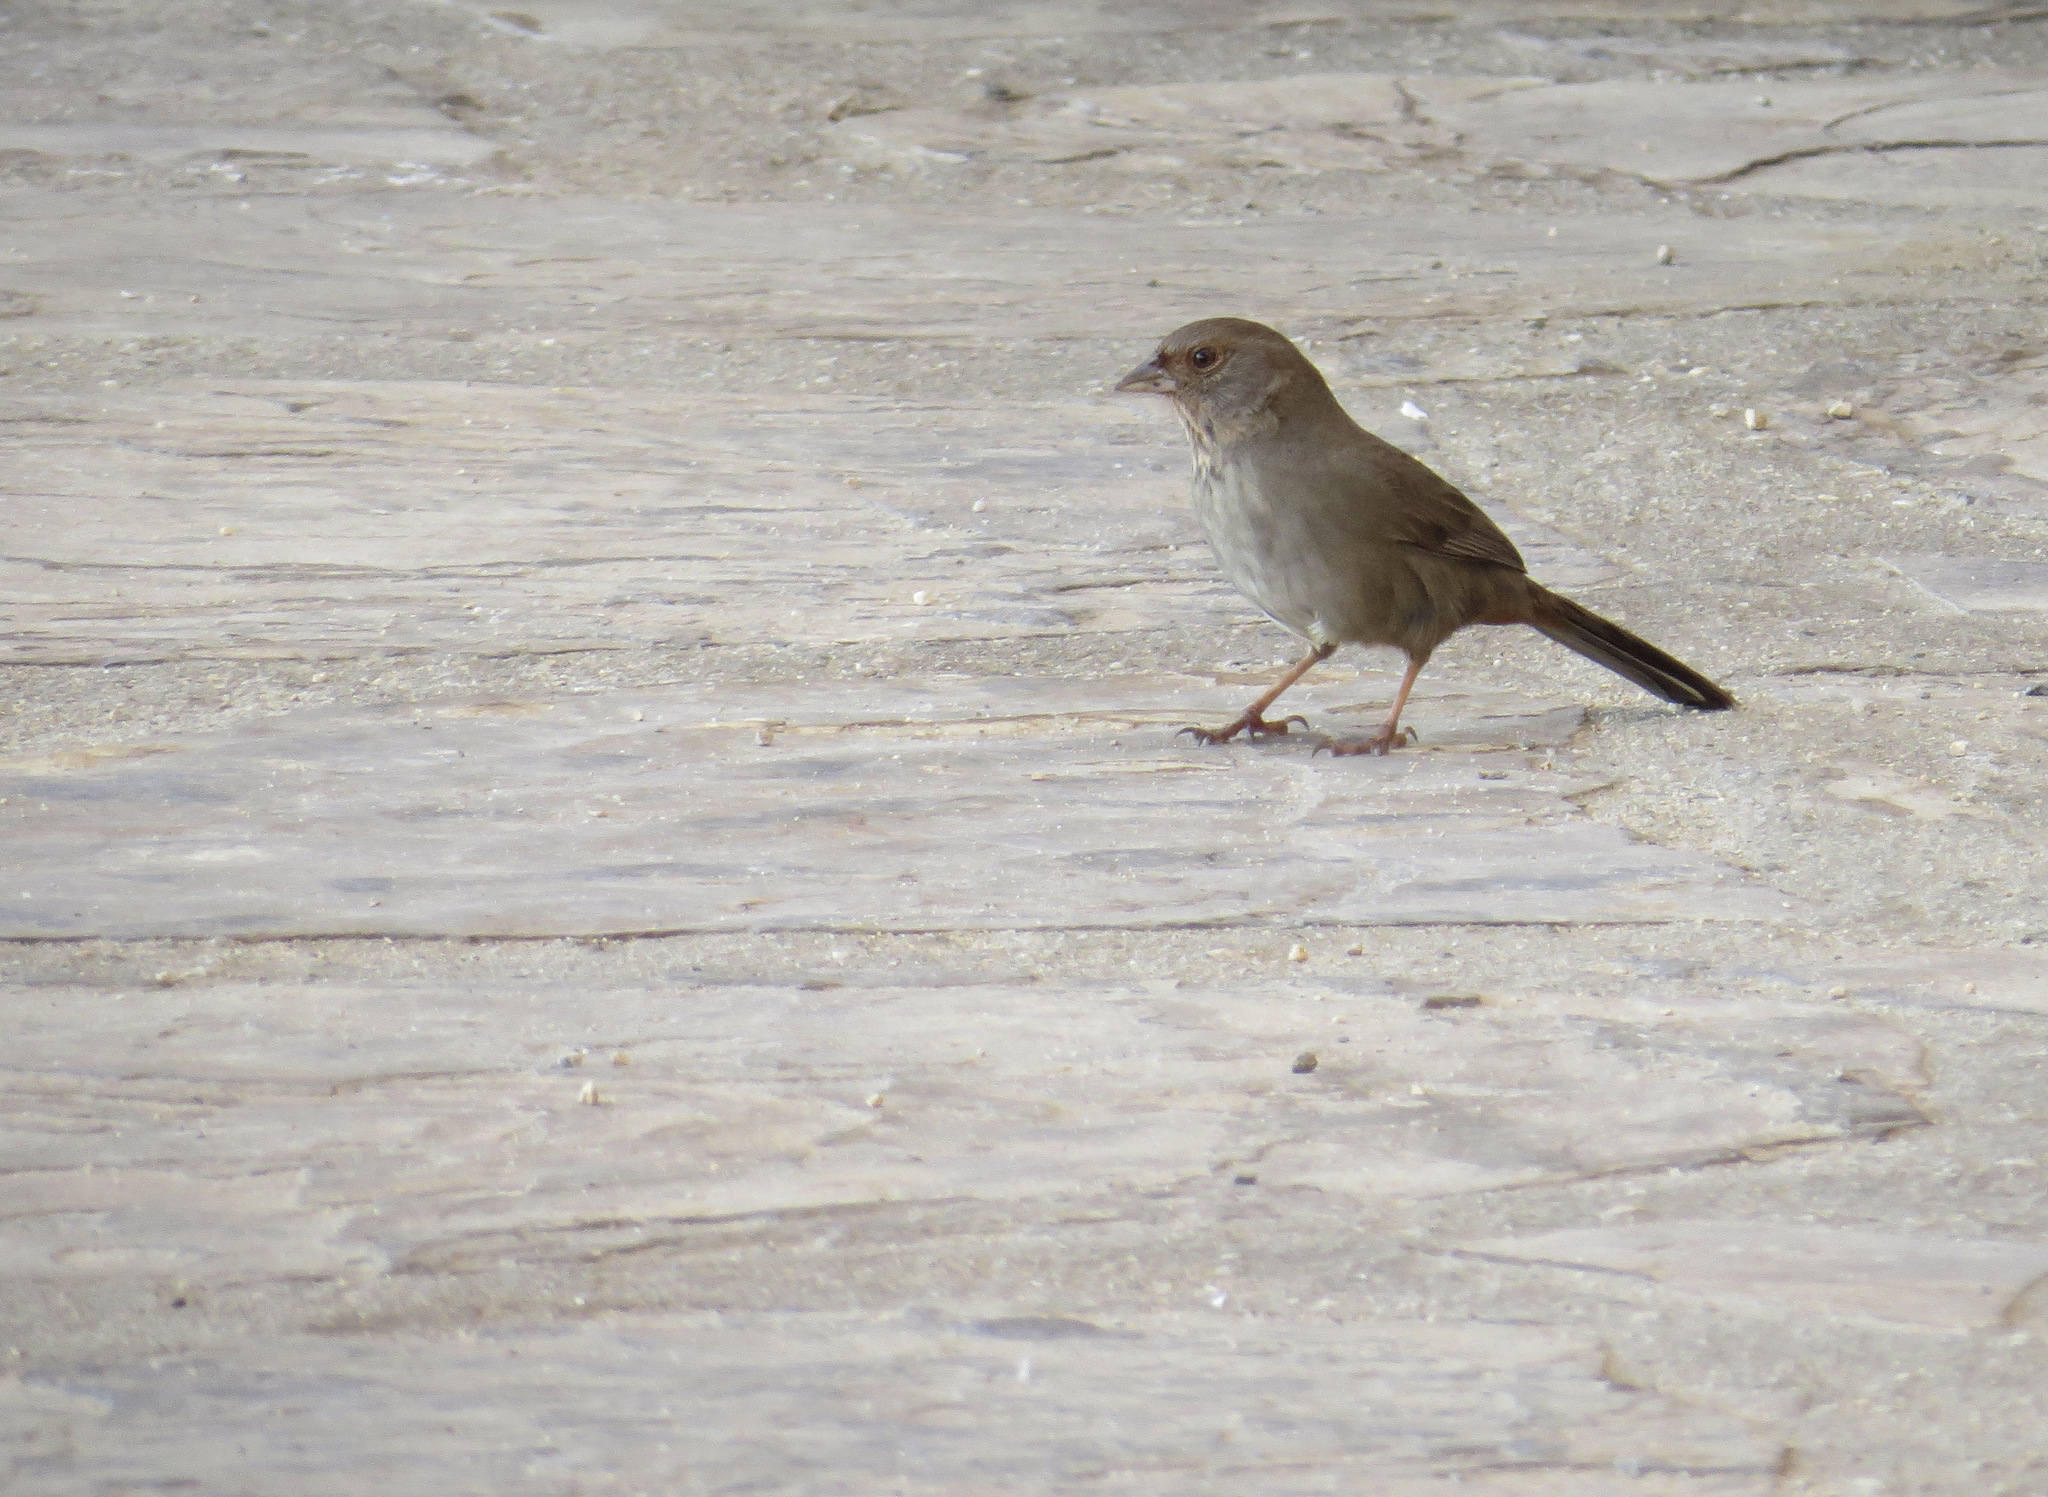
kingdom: Animalia
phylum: Chordata
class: Aves
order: Passeriformes
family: Passerellidae
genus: Melozone
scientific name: Melozone crissalis
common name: California towhee
